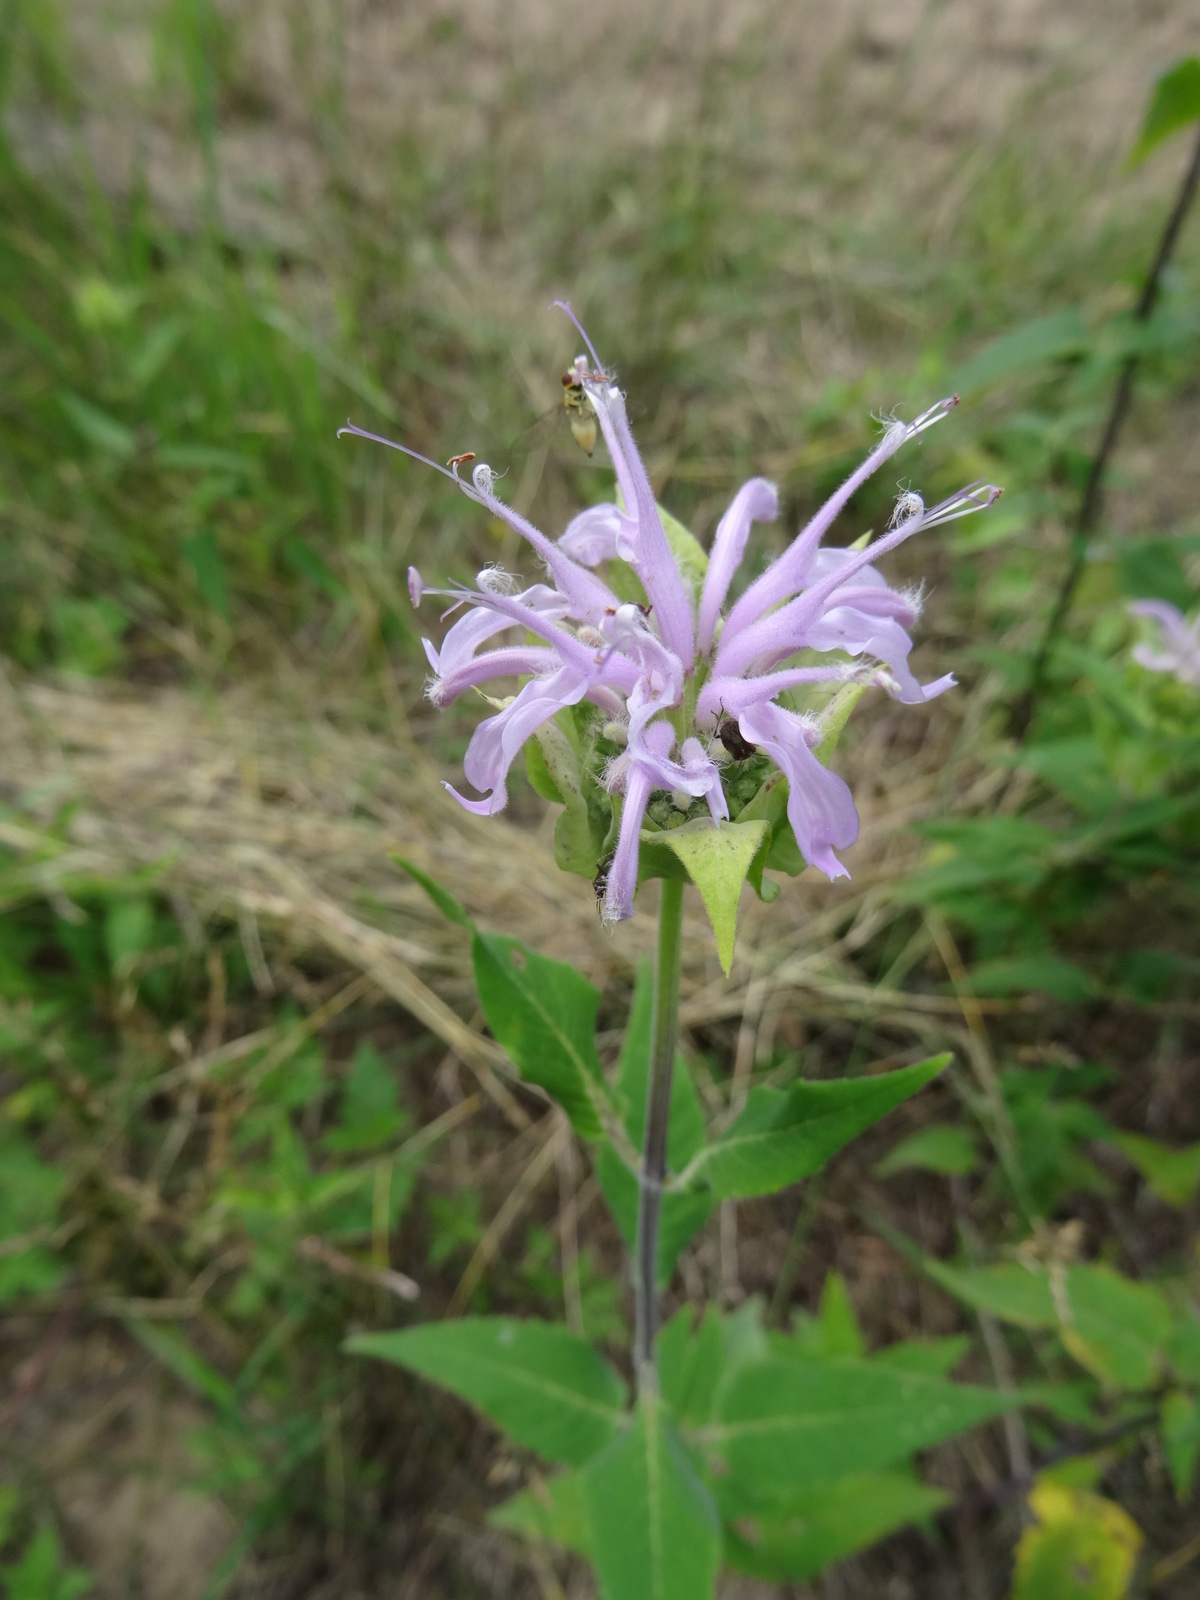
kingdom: Plantae
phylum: Tracheophyta
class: Magnoliopsida
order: Lamiales
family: Lamiaceae
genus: Monarda
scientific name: Monarda fistulosa
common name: Purple beebalm
